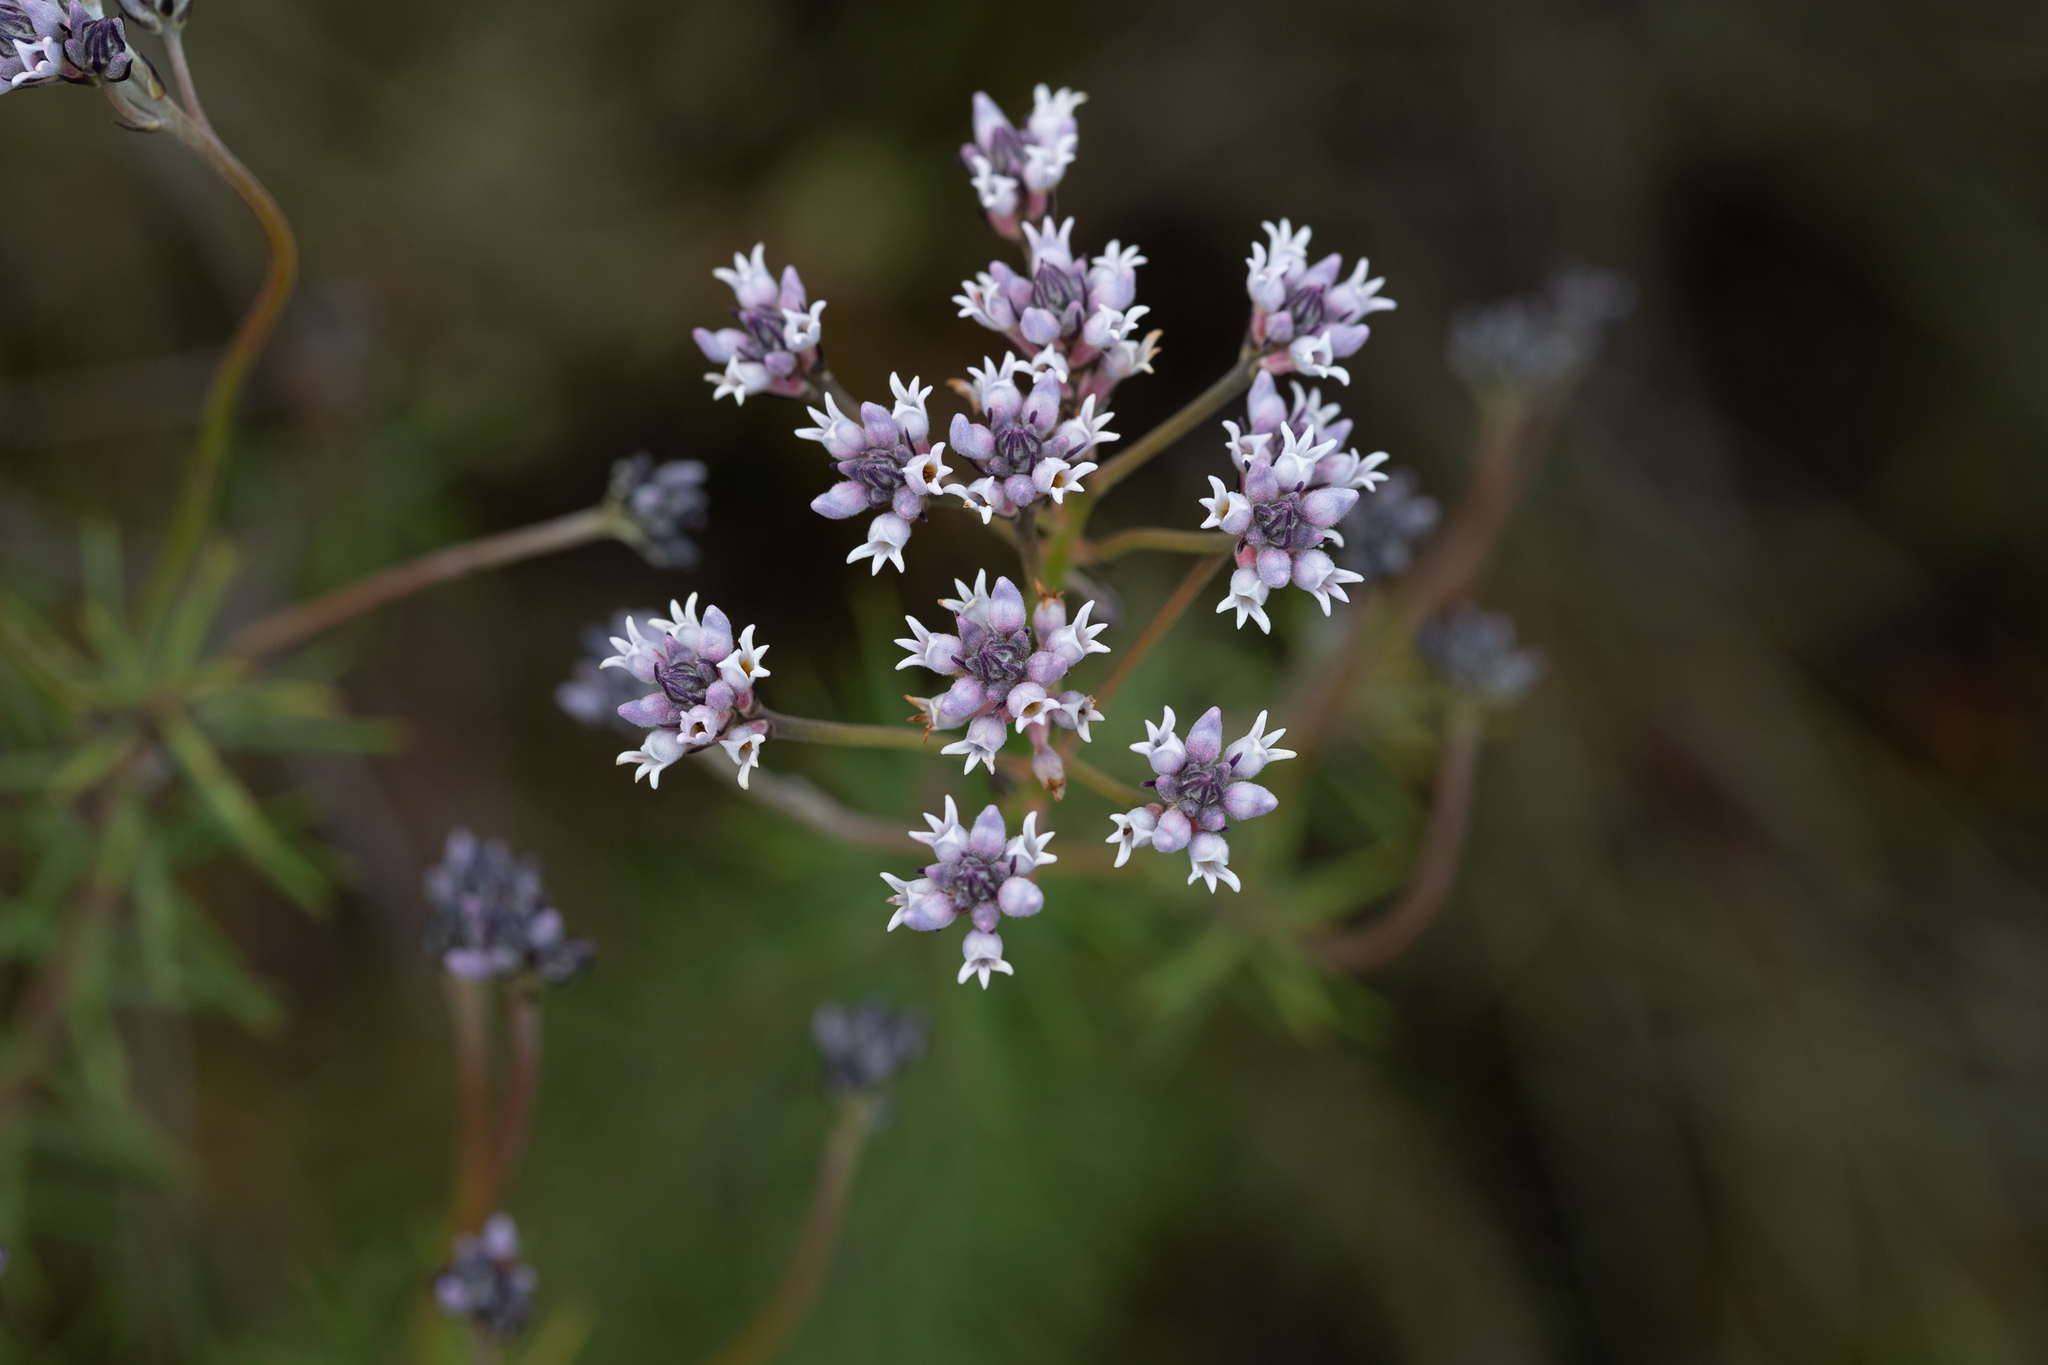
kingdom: Plantae
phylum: Tracheophyta
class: Magnoliopsida
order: Proteales
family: Proteaceae
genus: Conospermum
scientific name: Conospermum patens
